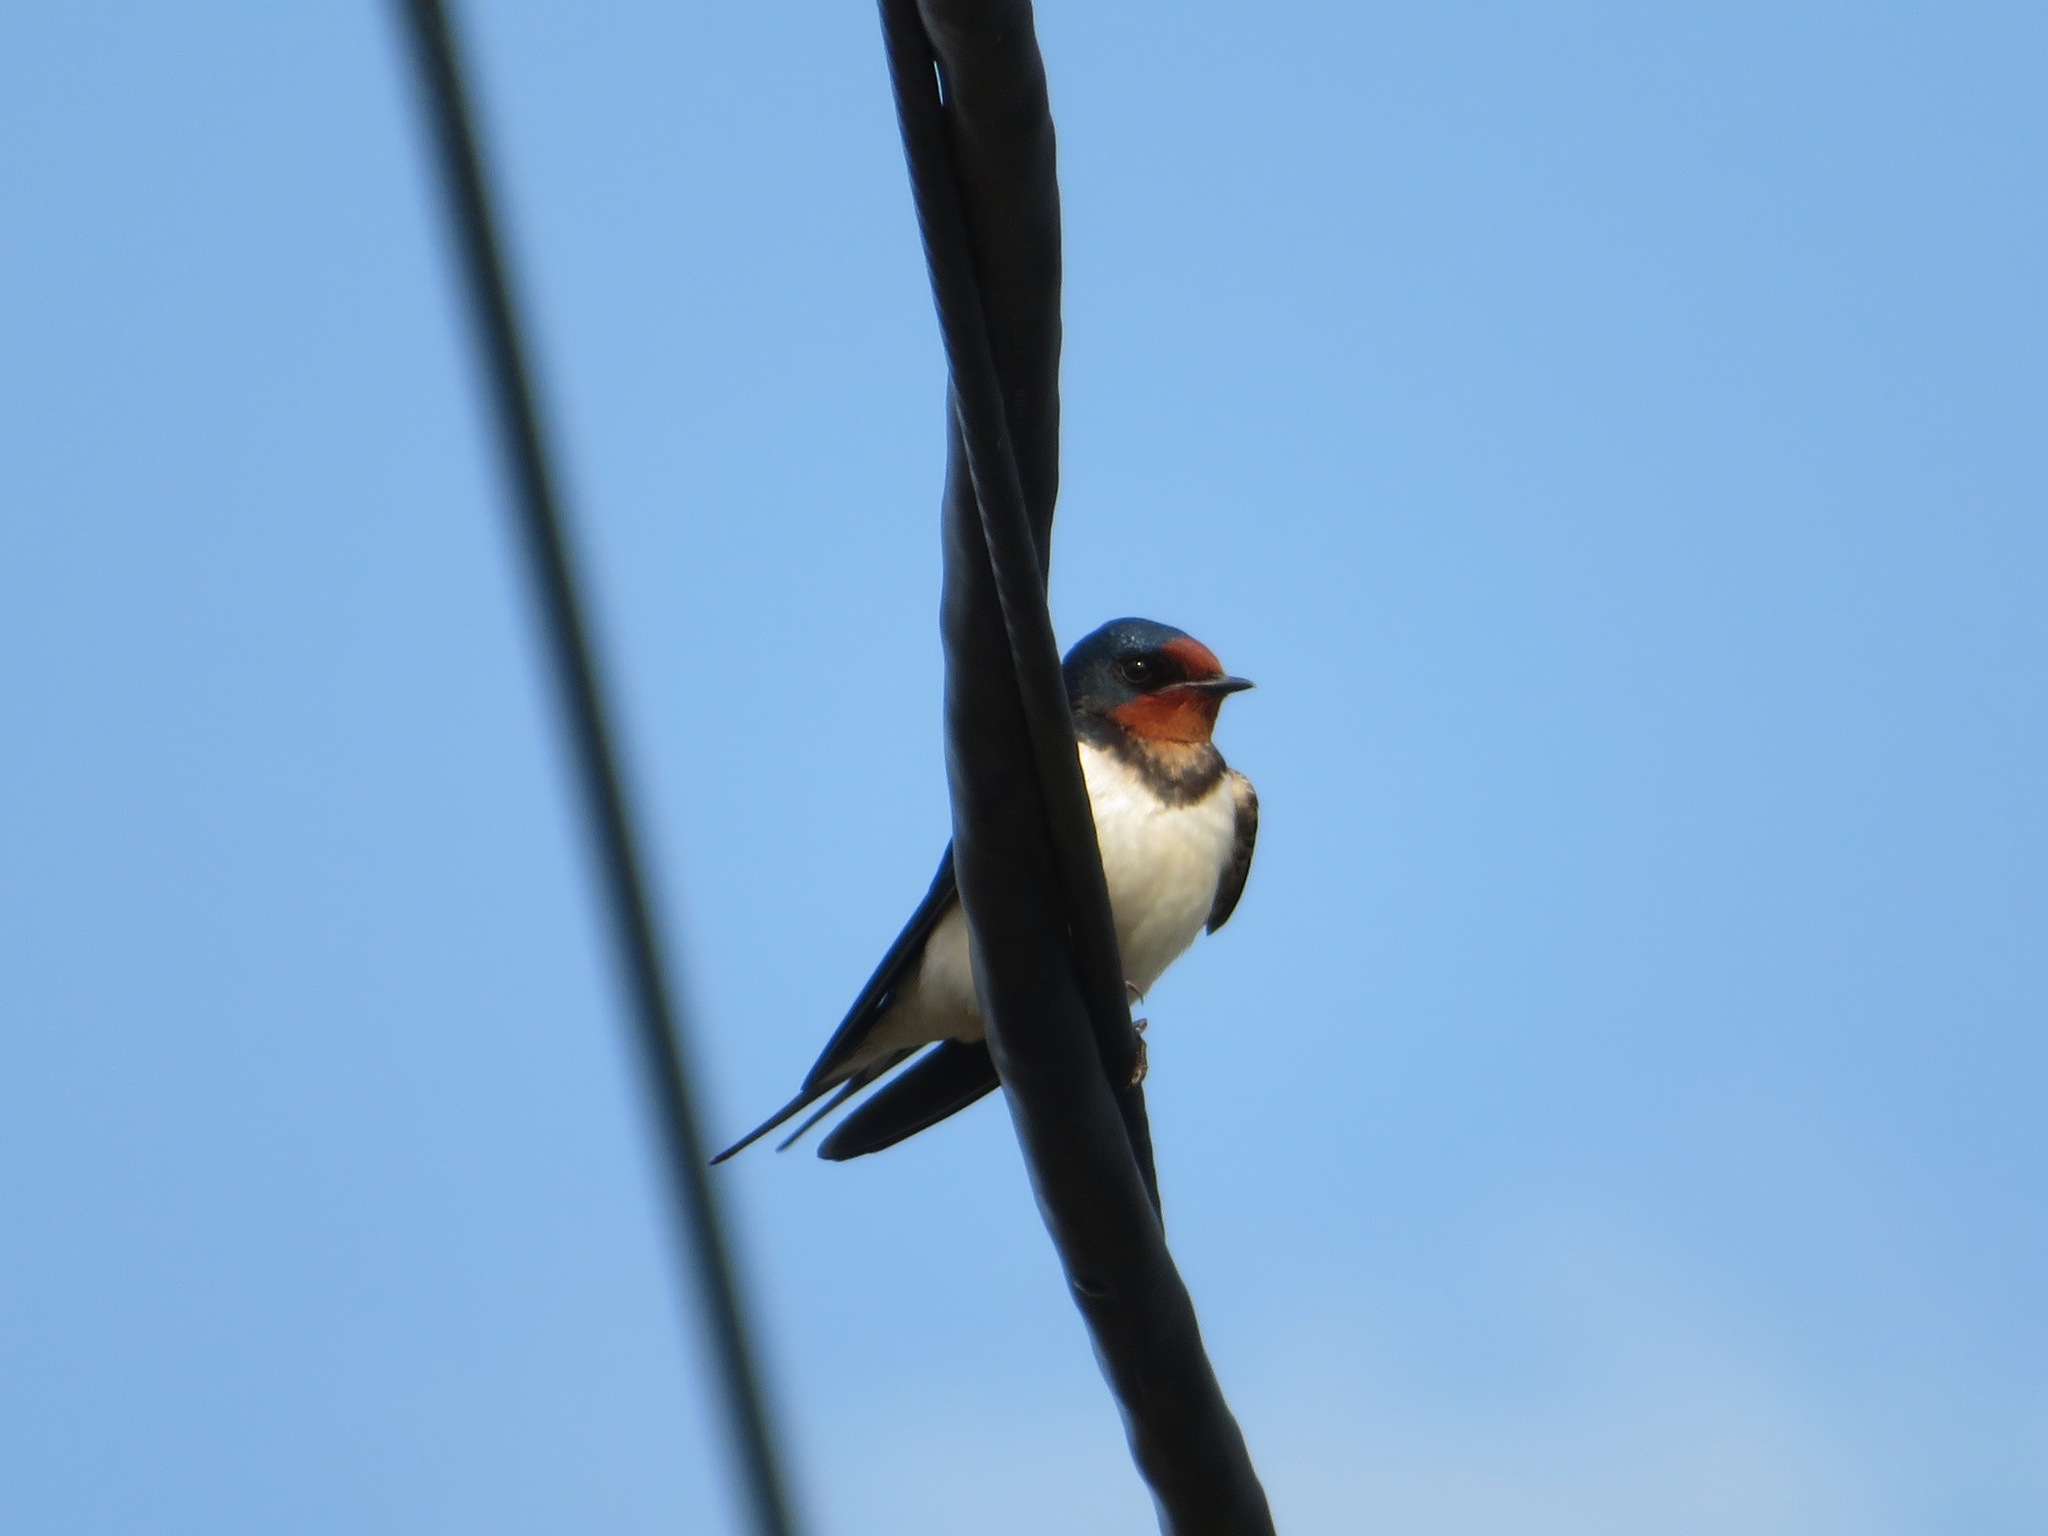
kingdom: Animalia
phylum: Chordata
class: Aves
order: Passeriformes
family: Hirundinidae
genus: Hirundo
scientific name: Hirundo rustica
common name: Barn swallow
